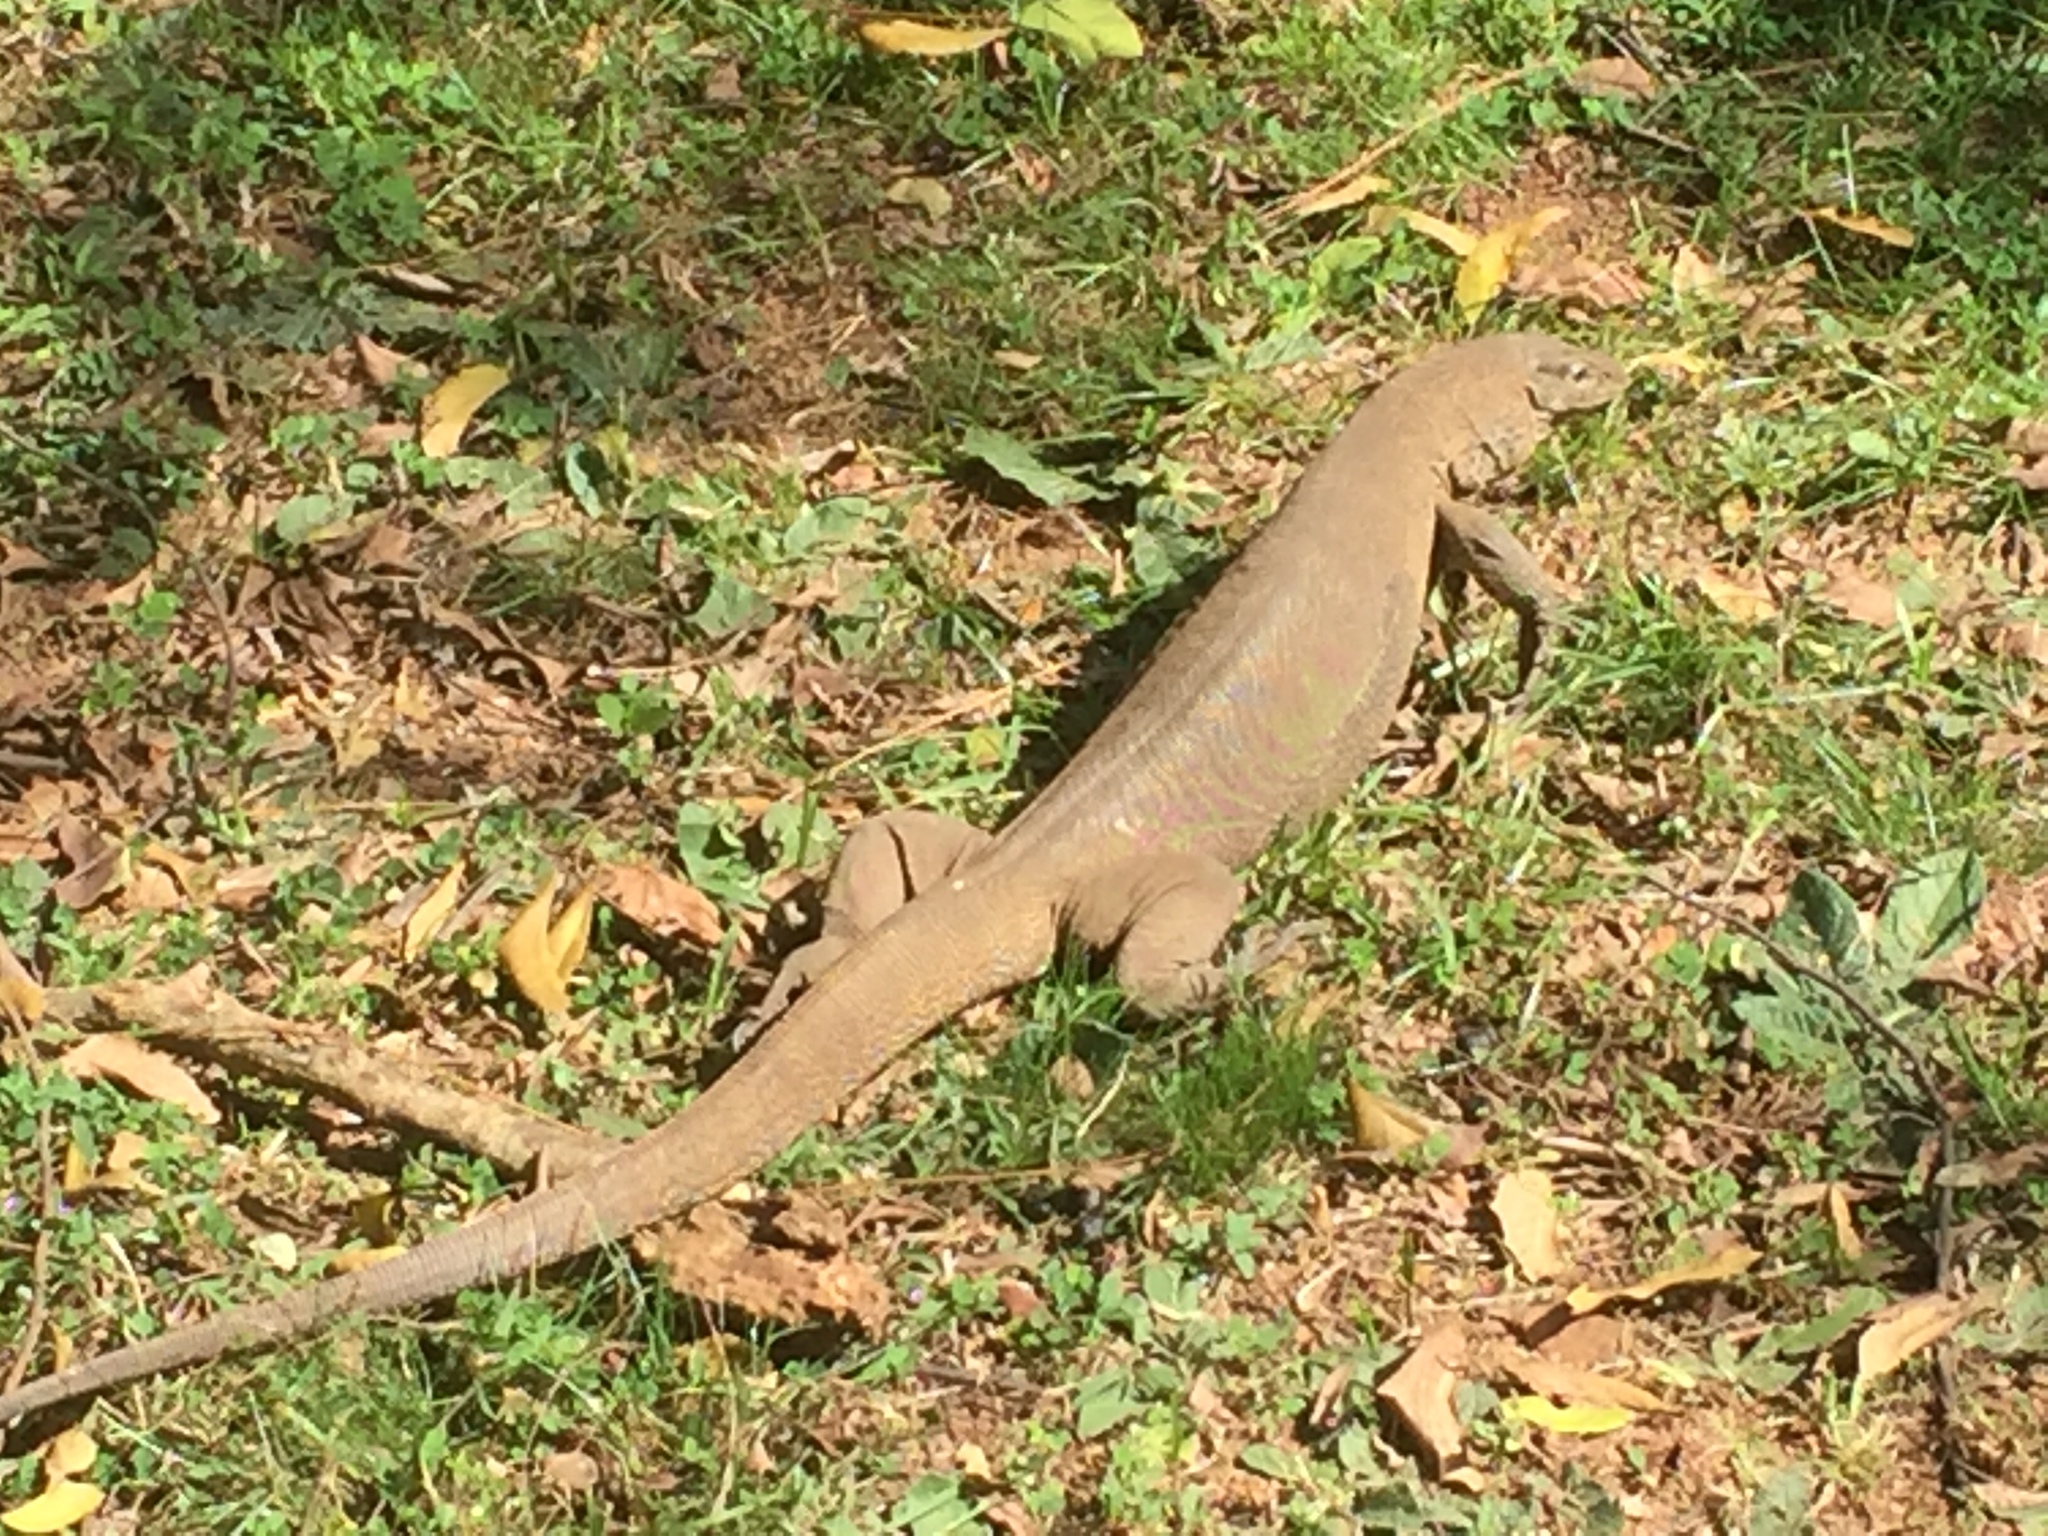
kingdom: Animalia
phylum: Chordata
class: Squamata
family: Varanidae
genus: Varanus
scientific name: Varanus bengalensis
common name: Bengal monitor
